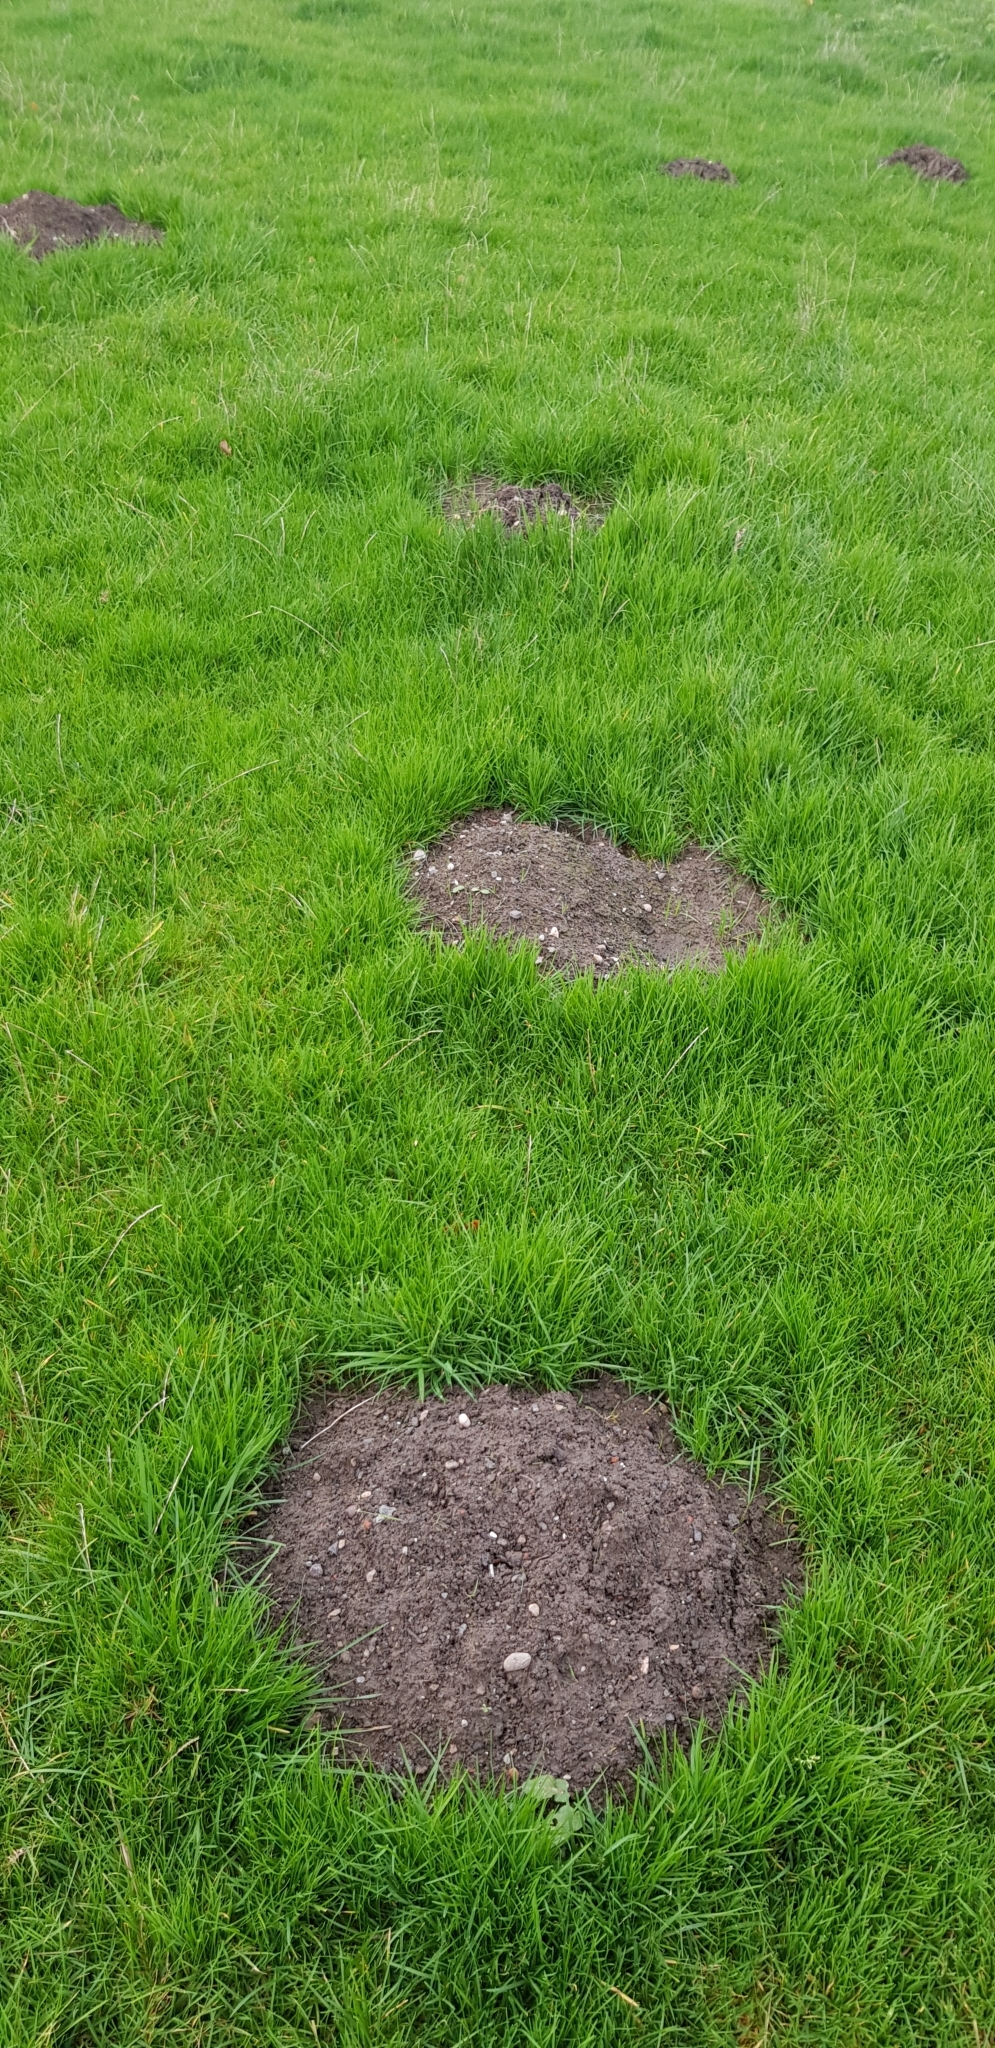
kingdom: Animalia
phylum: Chordata
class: Mammalia
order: Soricomorpha
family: Talpidae
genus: Talpa
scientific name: Talpa europaea
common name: European mole
